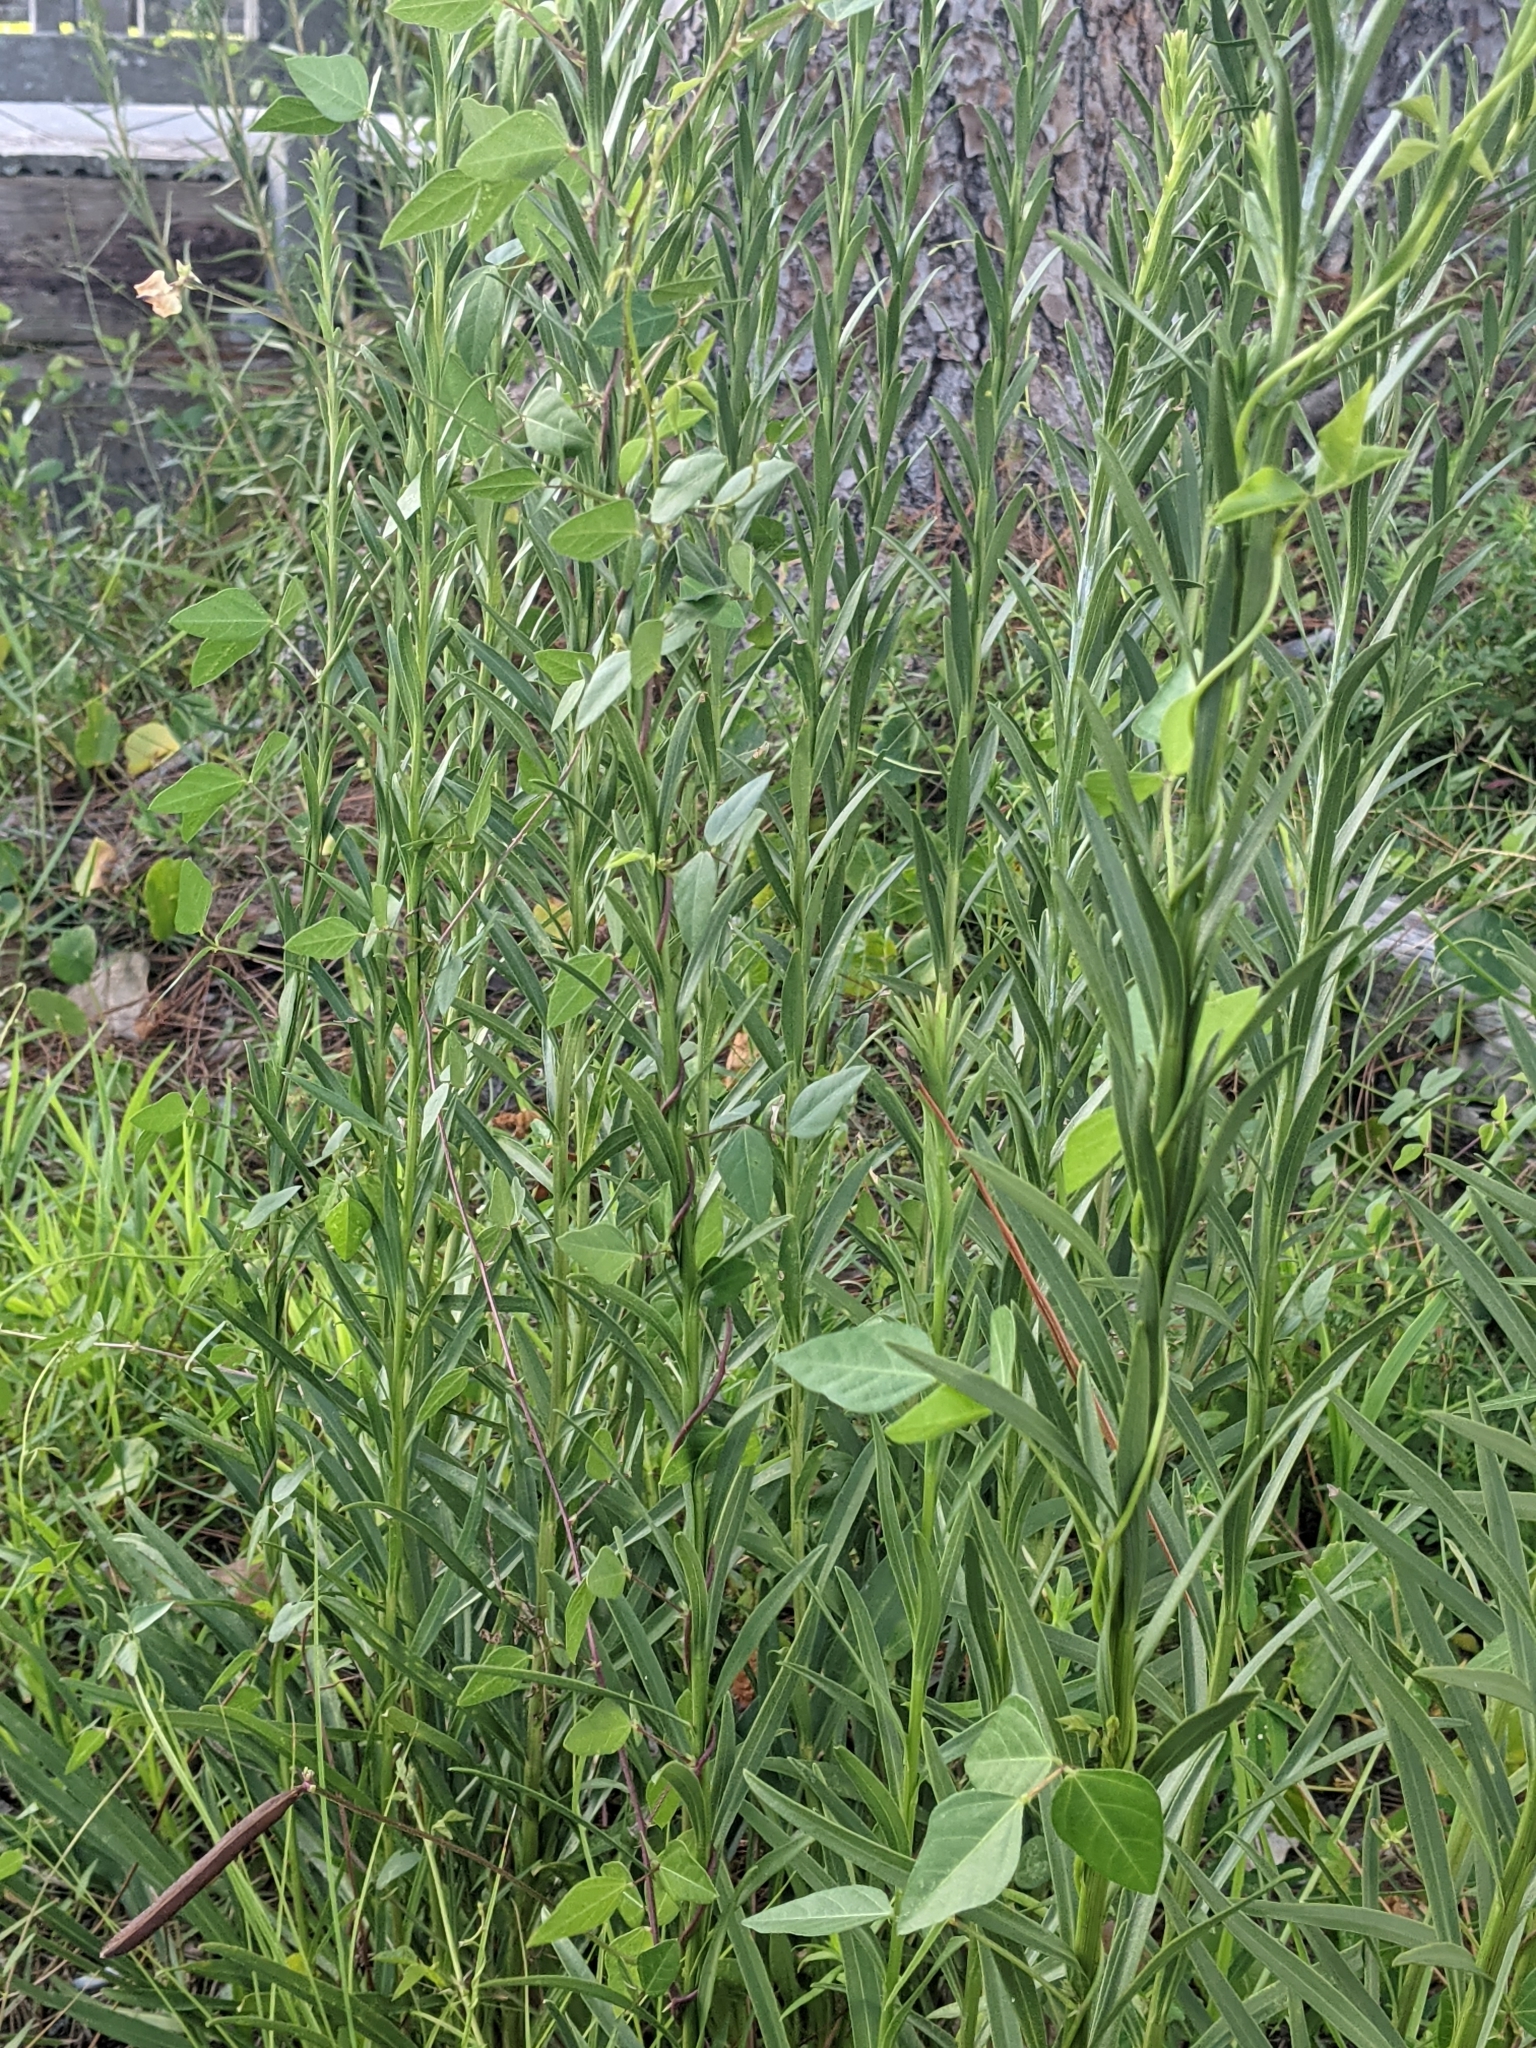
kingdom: Plantae
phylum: Tracheophyta
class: Magnoliopsida
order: Fabales
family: Fabaceae
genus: Strophostyles
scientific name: Strophostyles helvola
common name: Trailing wild bean
